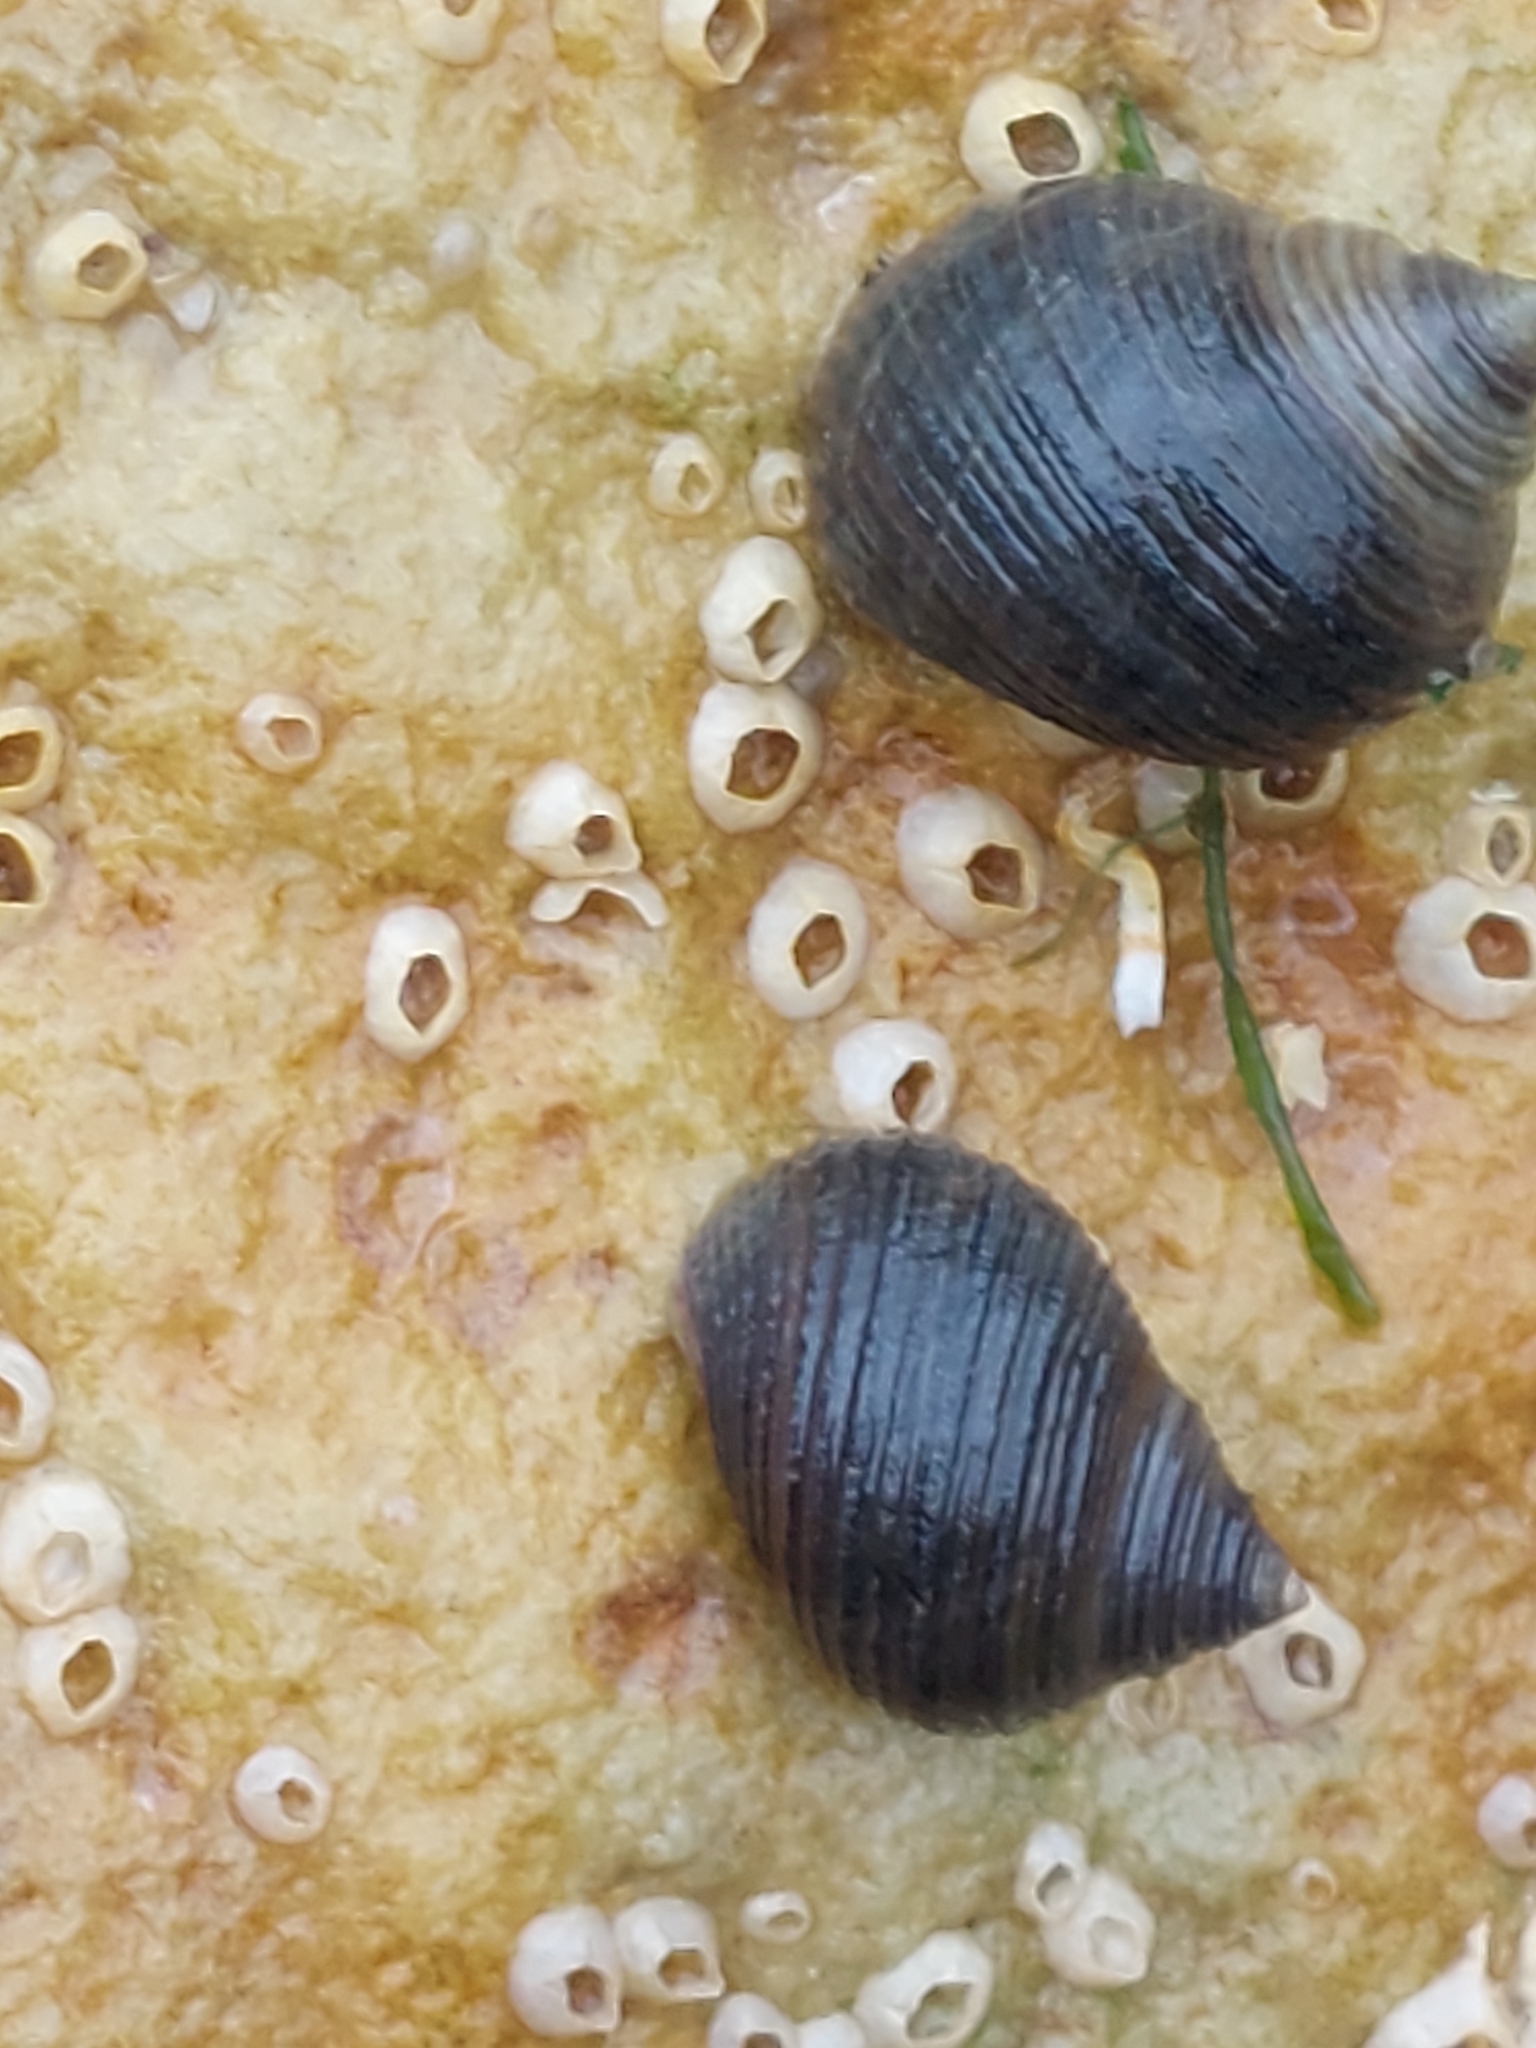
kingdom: Animalia
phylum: Mollusca
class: Gastropoda
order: Littorinimorpha
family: Littorinidae
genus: Littorina
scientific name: Littorina littorea
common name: Common periwinkle
